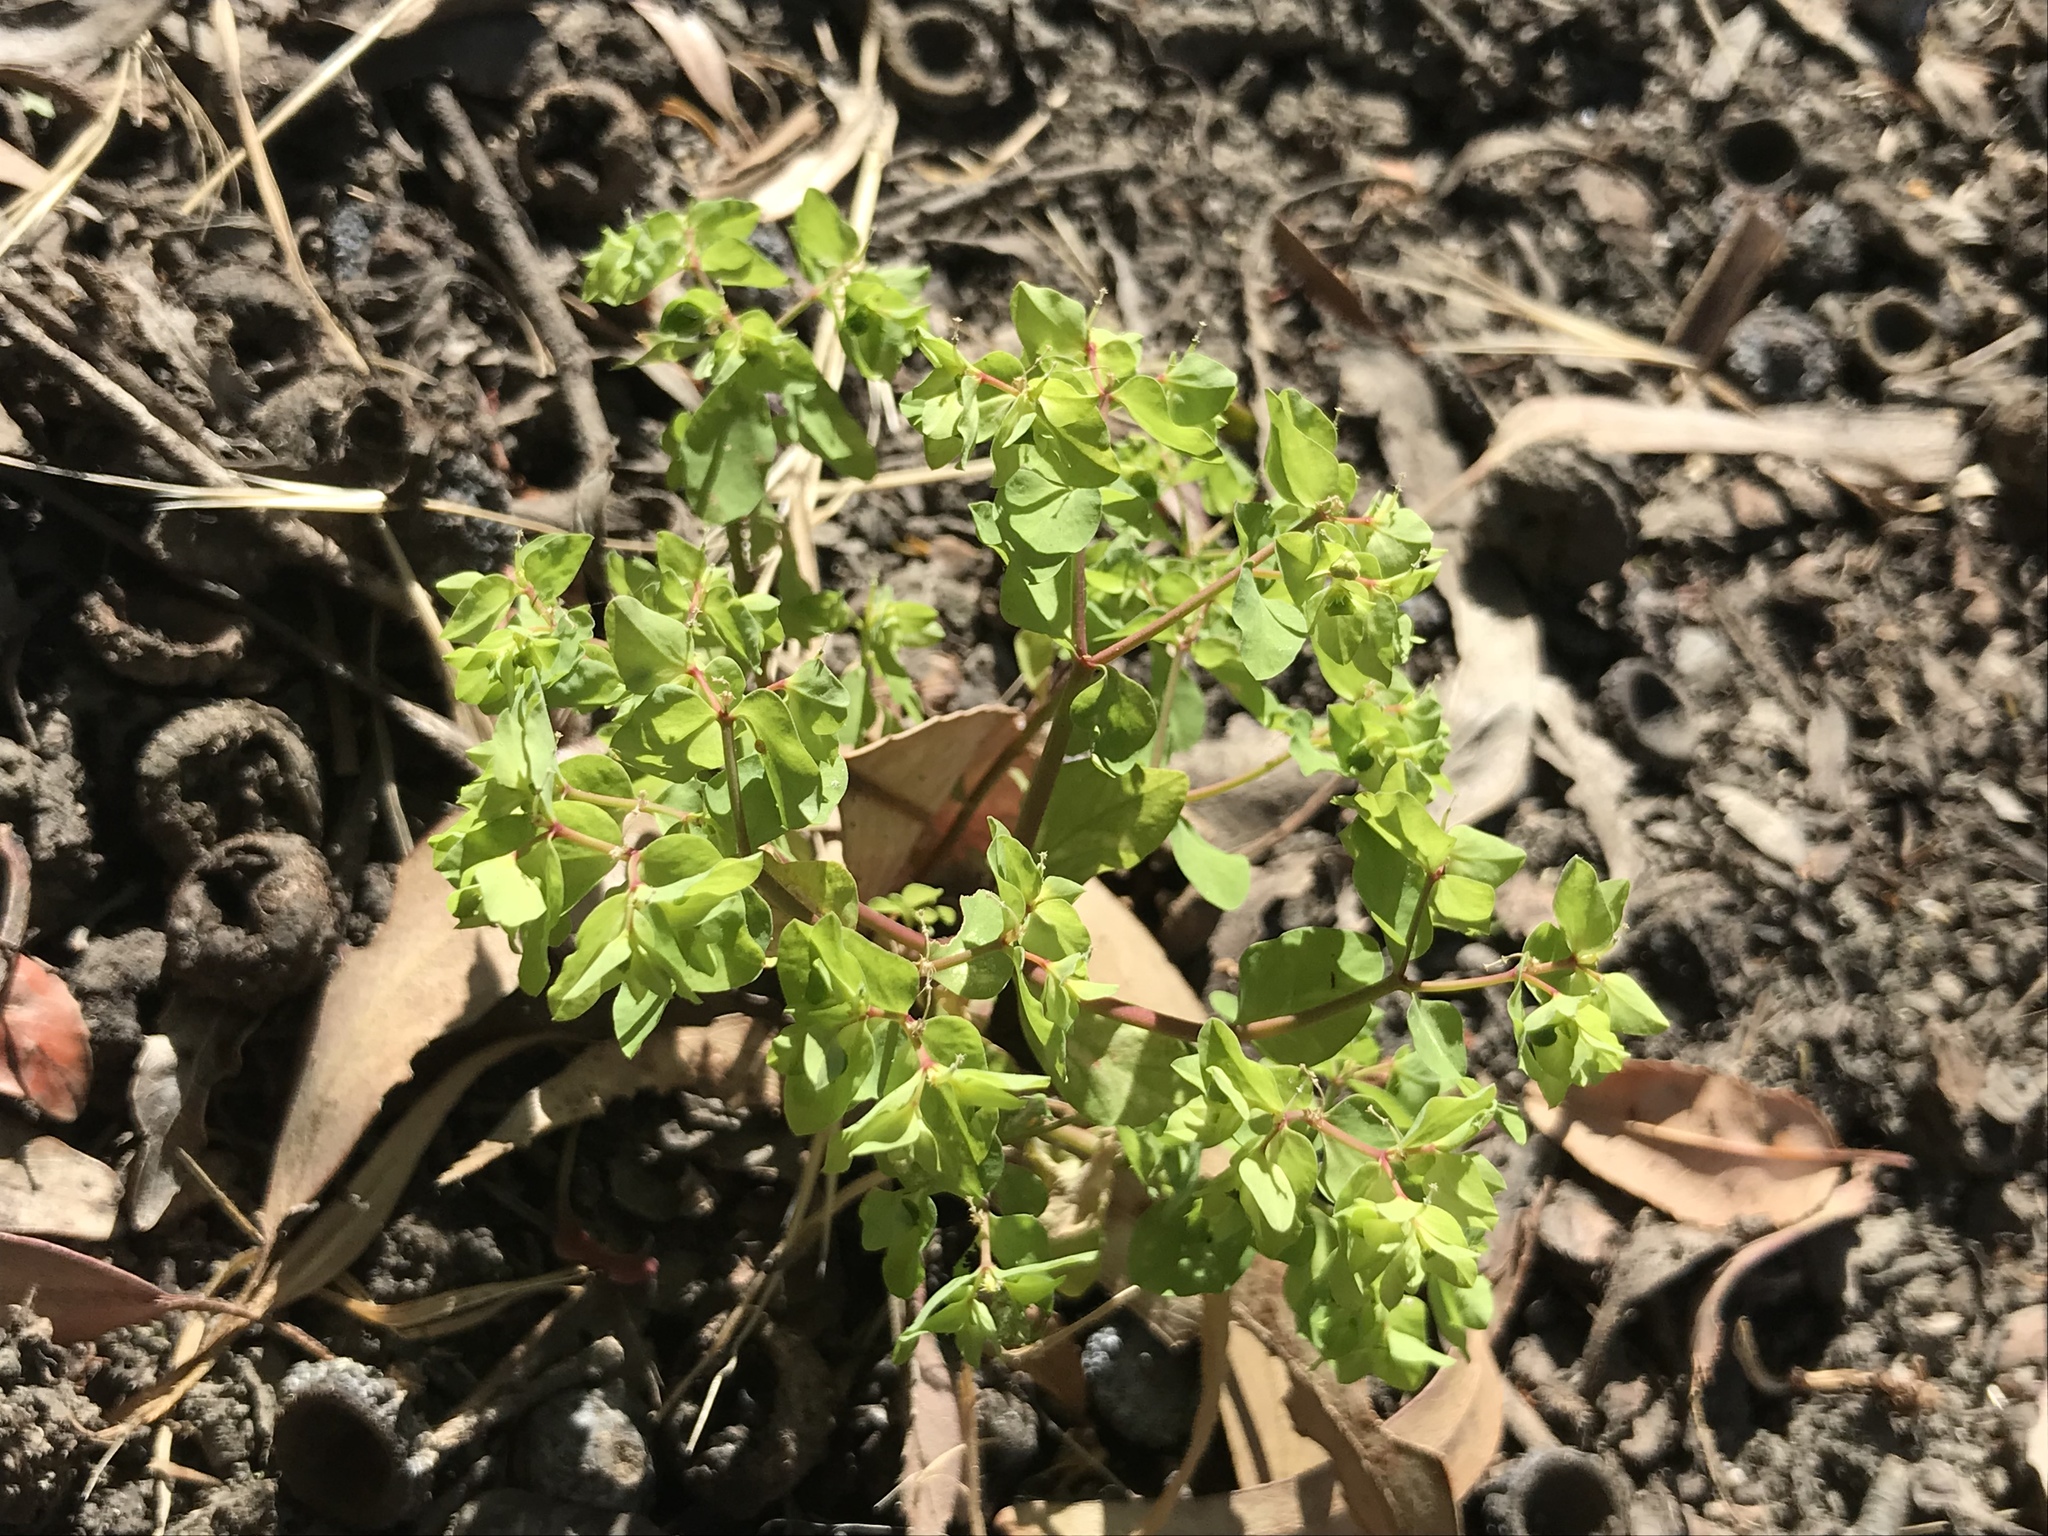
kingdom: Plantae
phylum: Tracheophyta
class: Magnoliopsida
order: Malpighiales
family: Euphorbiaceae
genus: Euphorbia
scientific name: Euphorbia peplus
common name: Petty spurge
